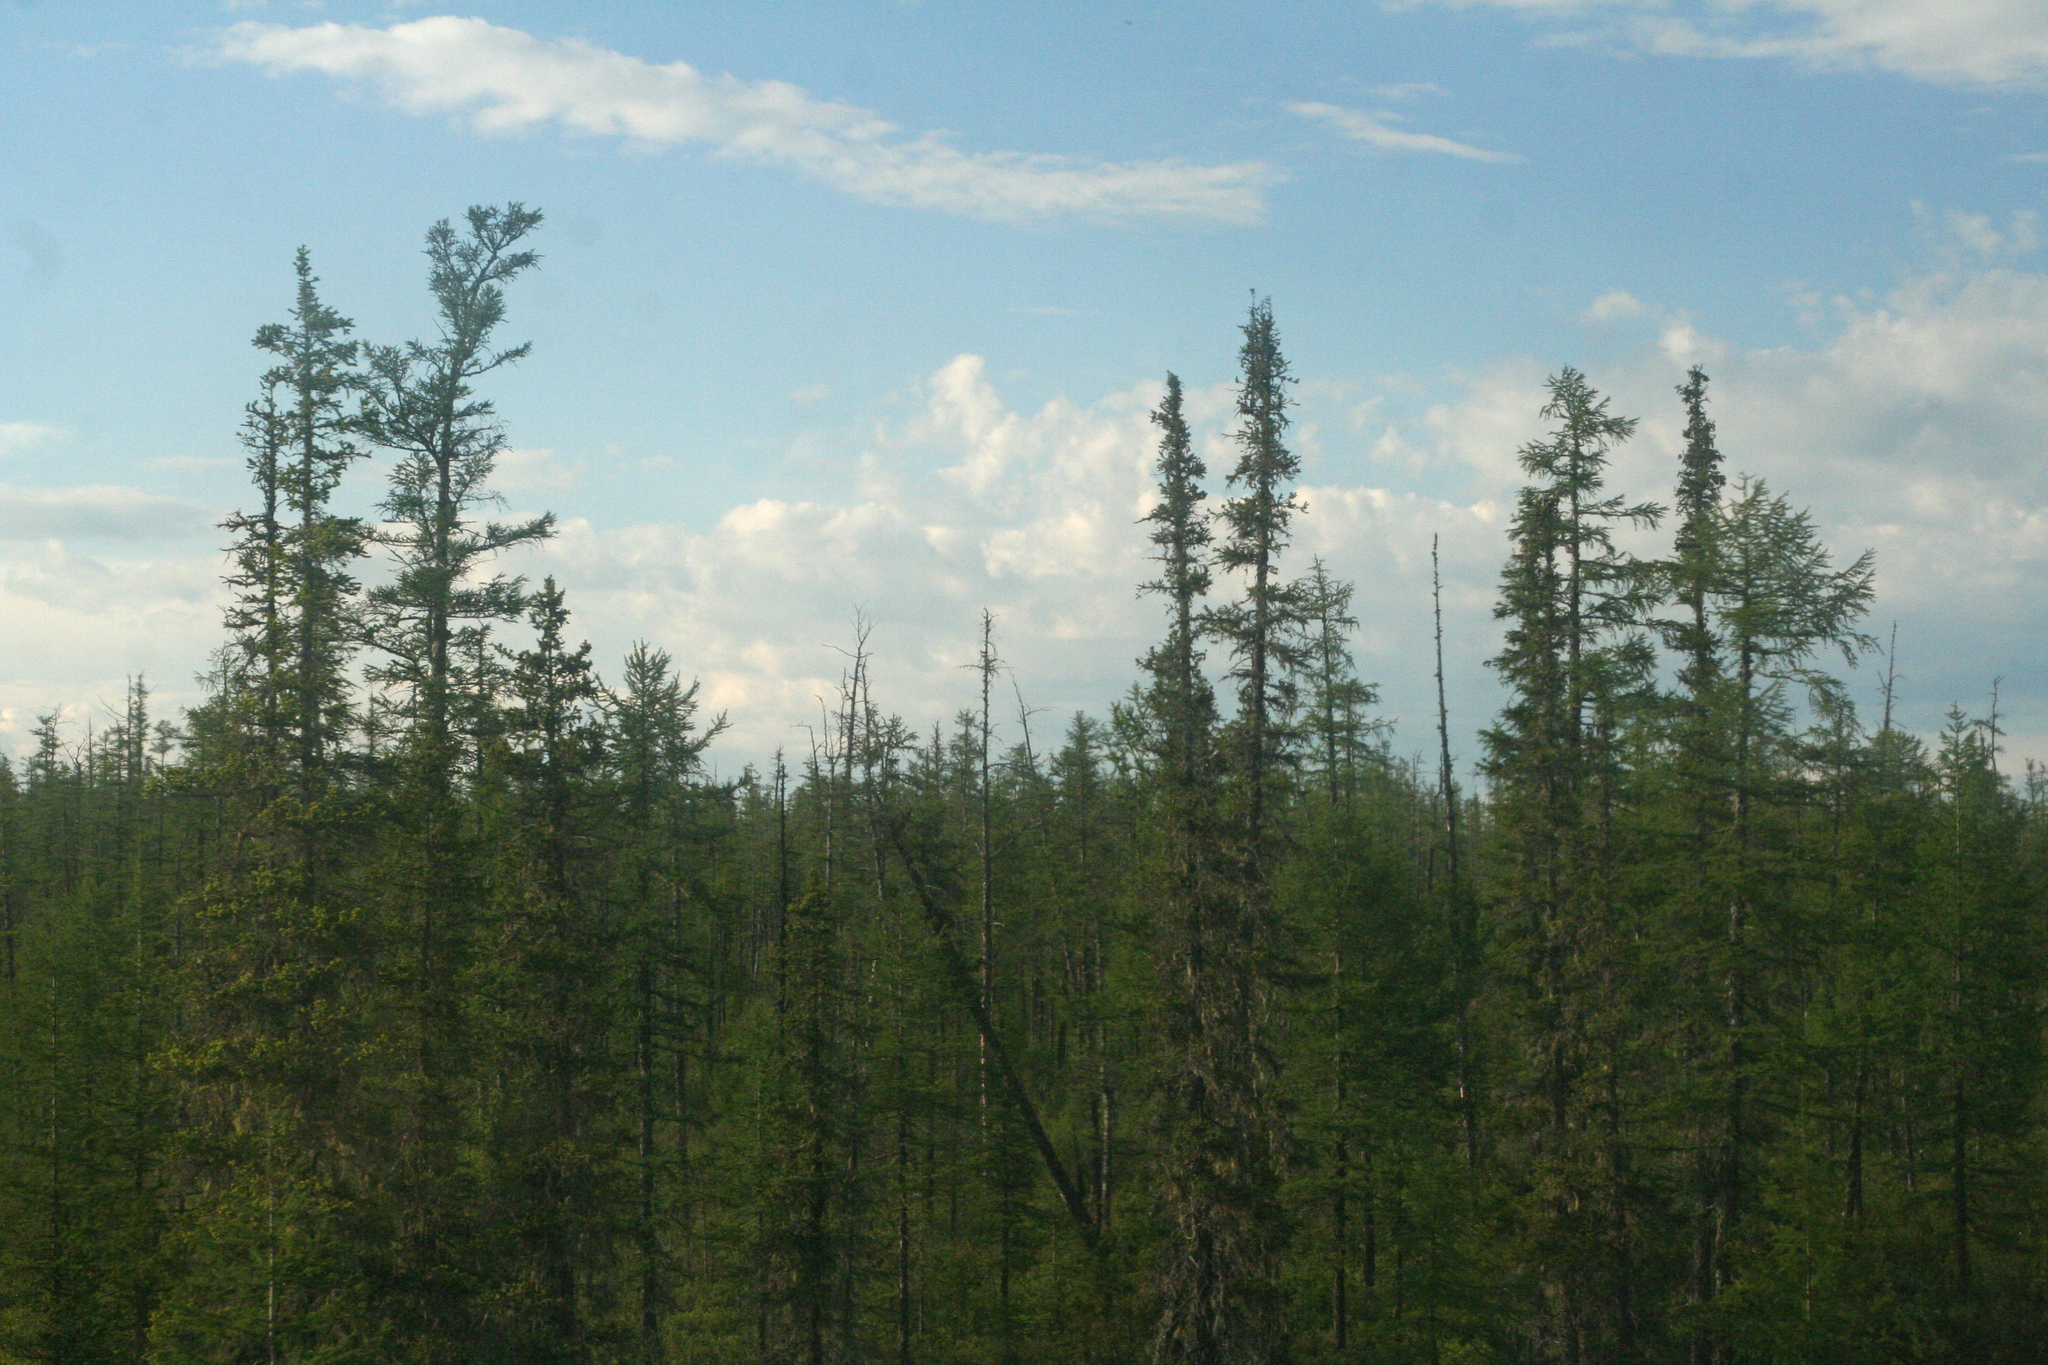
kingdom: Plantae
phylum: Tracheophyta
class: Pinopsida
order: Pinales
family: Pinaceae
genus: Picea
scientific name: Picea obovata
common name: Siberian spruce
